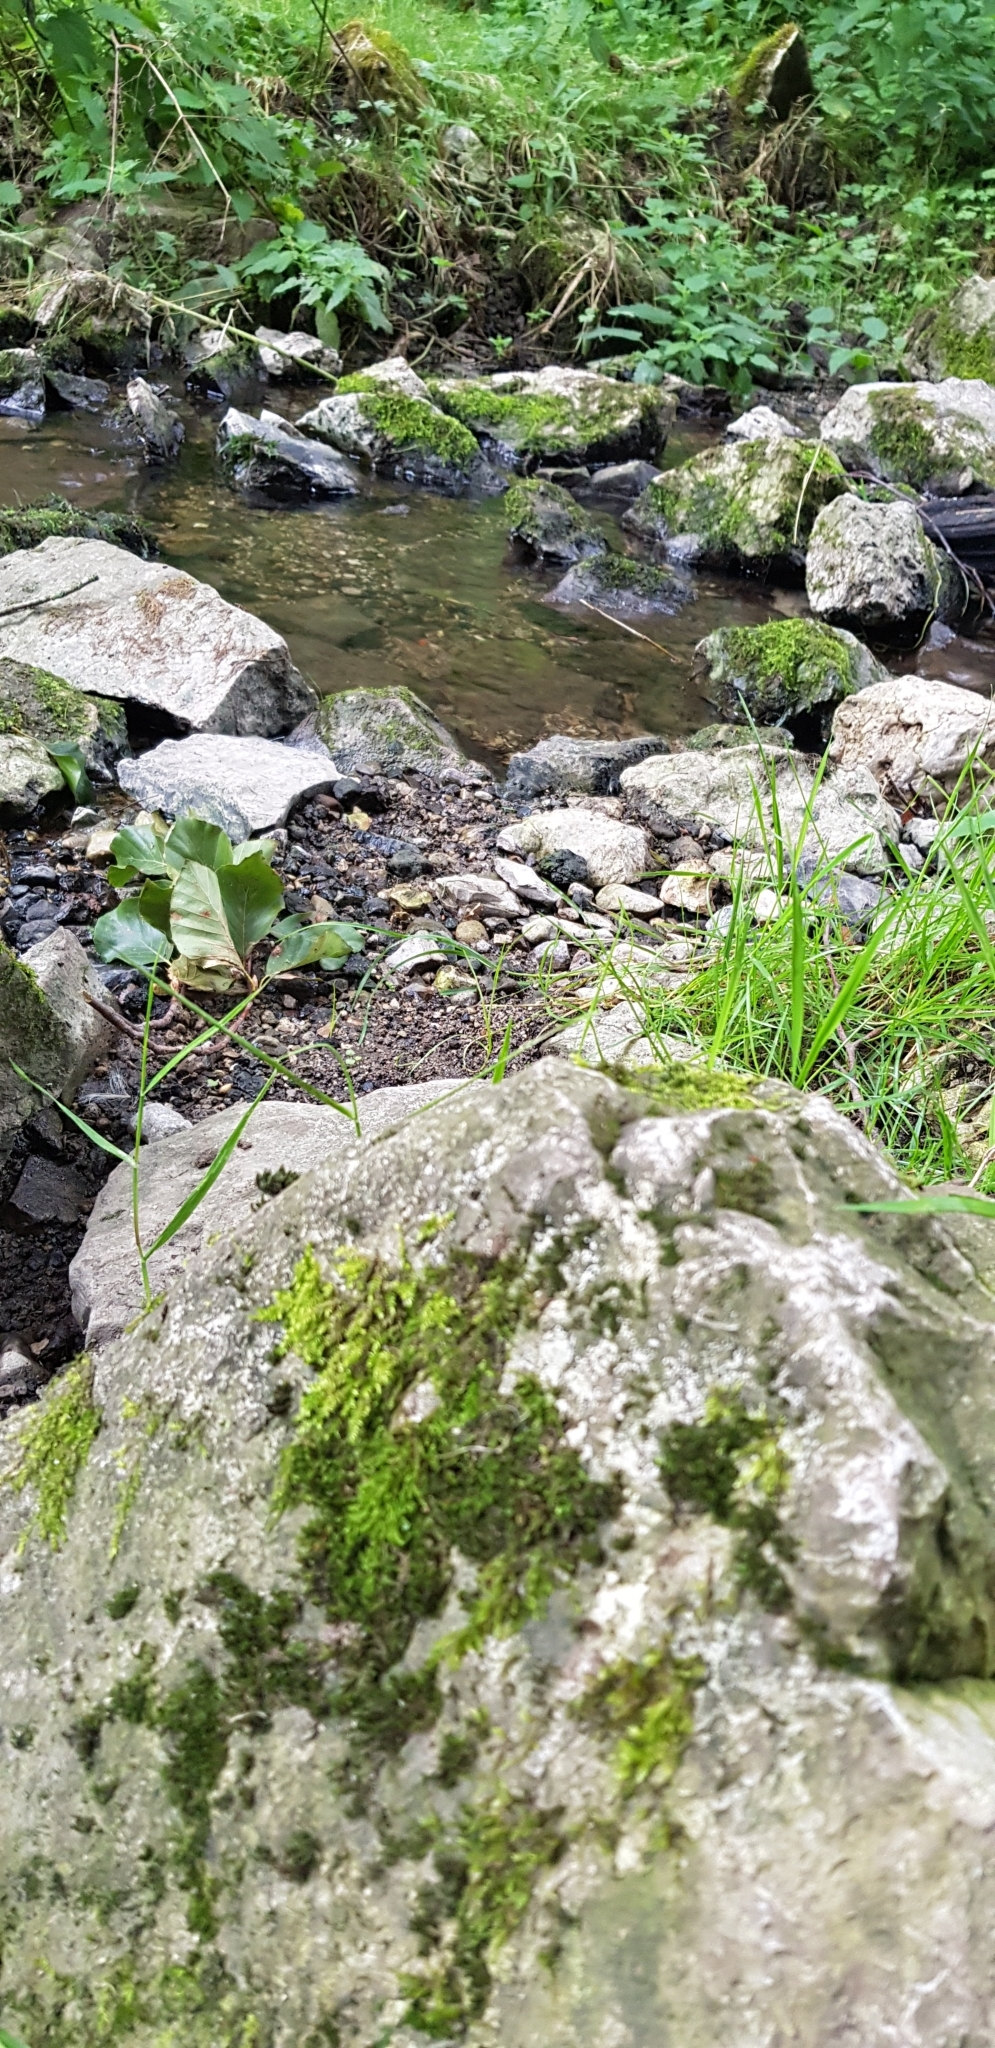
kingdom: Plantae
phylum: Bryophyta
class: Bryopsida
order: Hypnales
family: Amblystegiaceae
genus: Hygroamblystegium
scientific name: Hygroamblystegium tenax
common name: Fountain feather-moss
